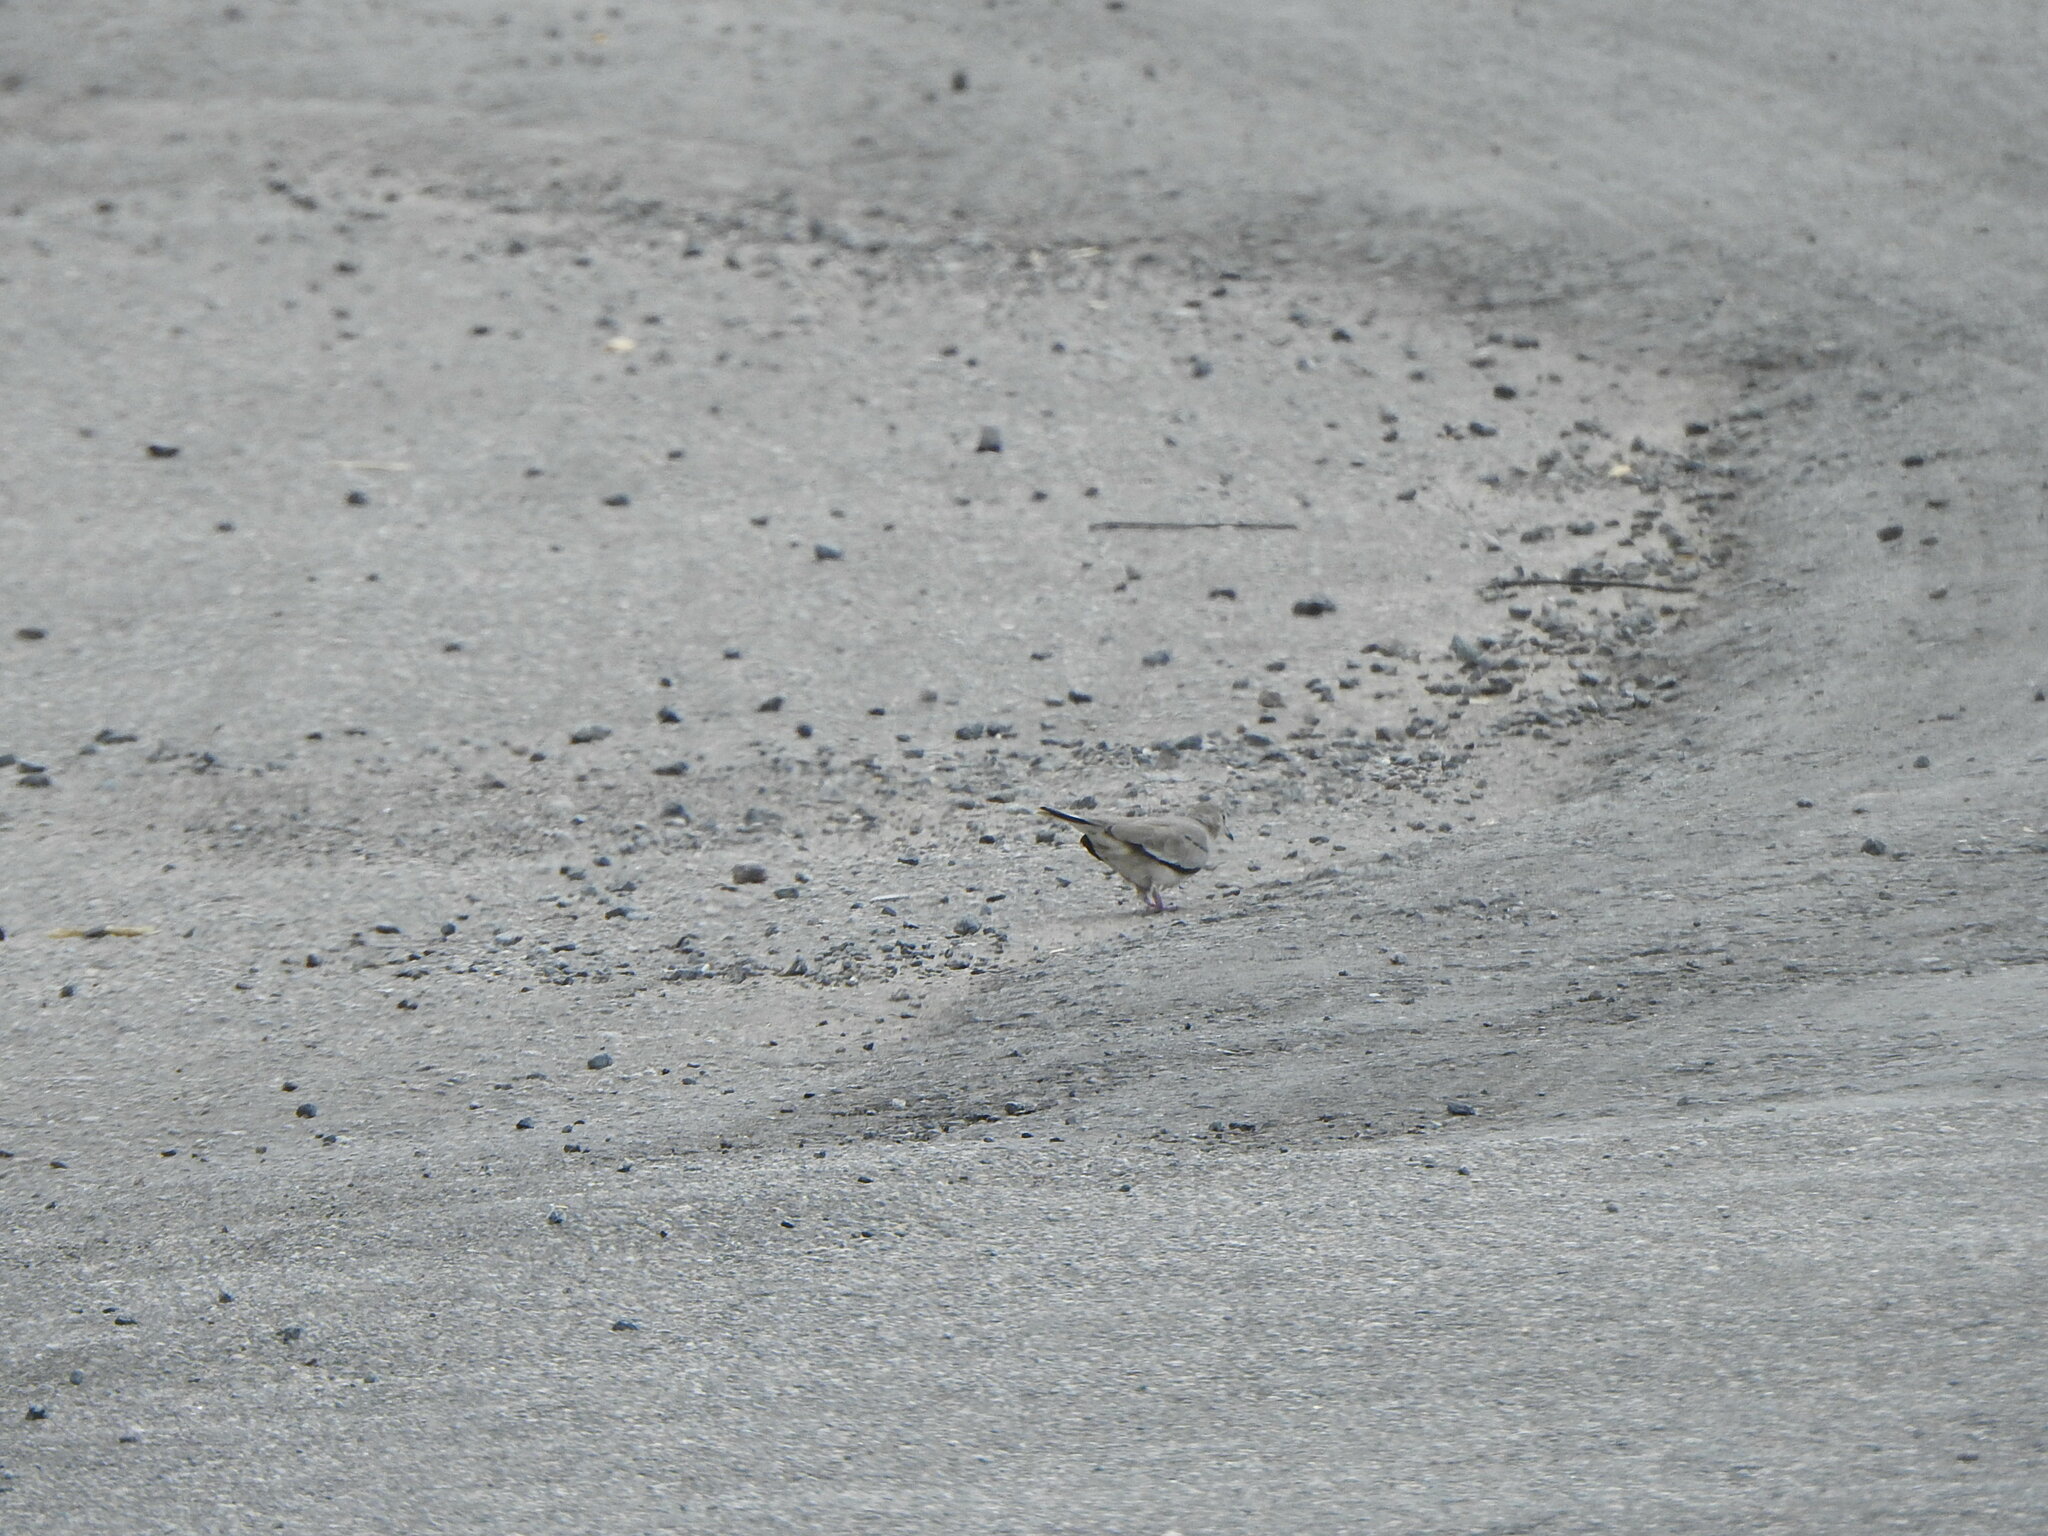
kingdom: Animalia
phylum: Chordata
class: Aves
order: Columbiformes
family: Columbidae
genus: Columbina
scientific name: Columbina picui
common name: Picui ground dove
